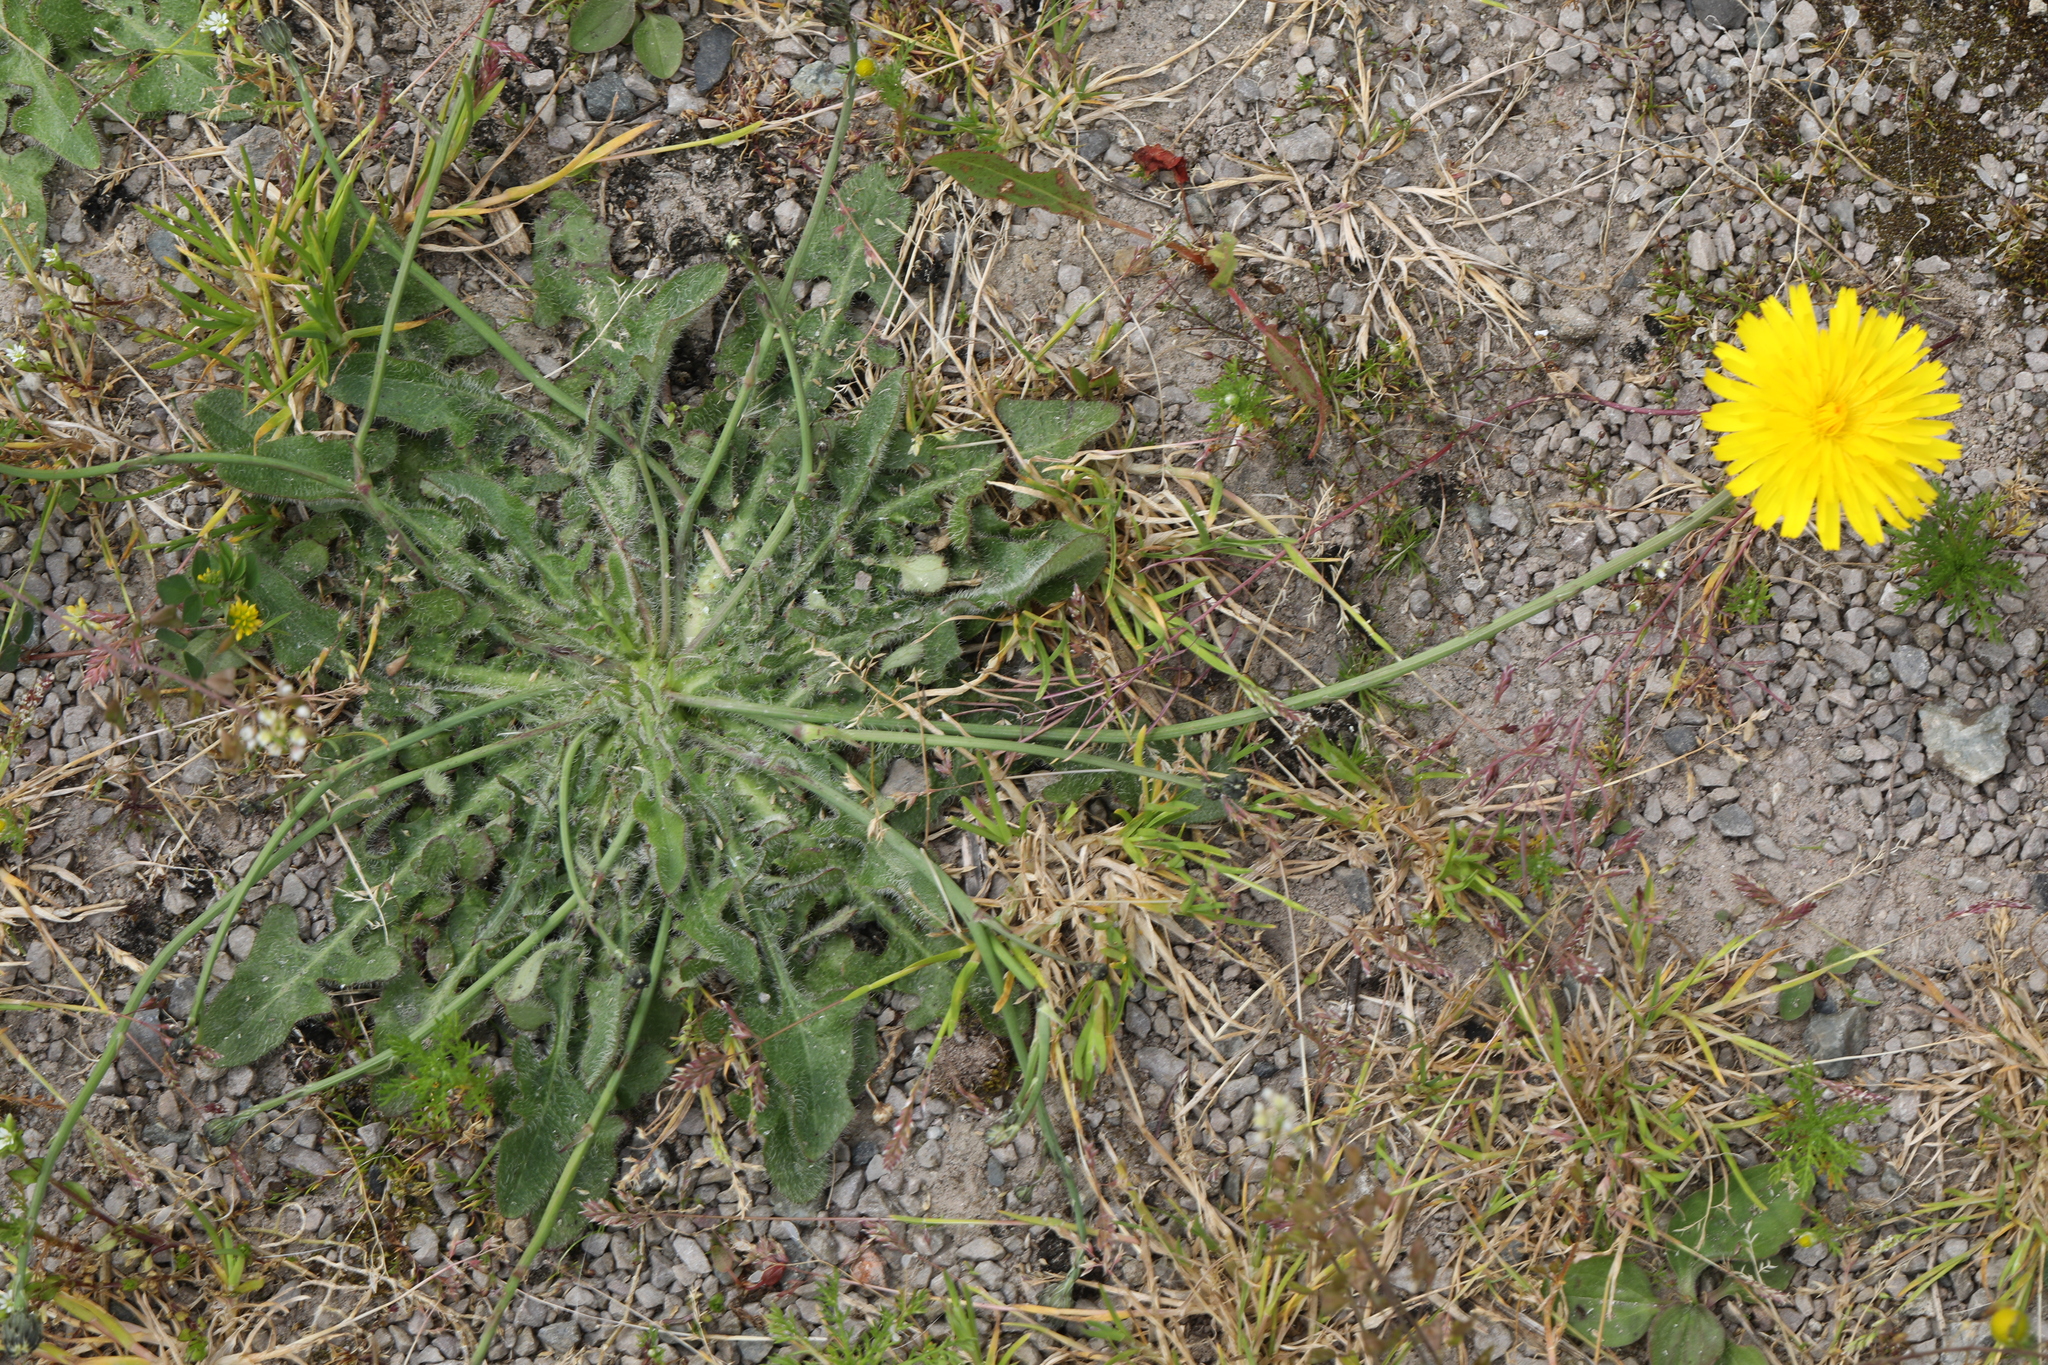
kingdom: Plantae
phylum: Tracheophyta
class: Magnoliopsida
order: Asterales
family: Asteraceae
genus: Hypochaeris
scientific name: Hypochaeris radicata
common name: Flatweed
